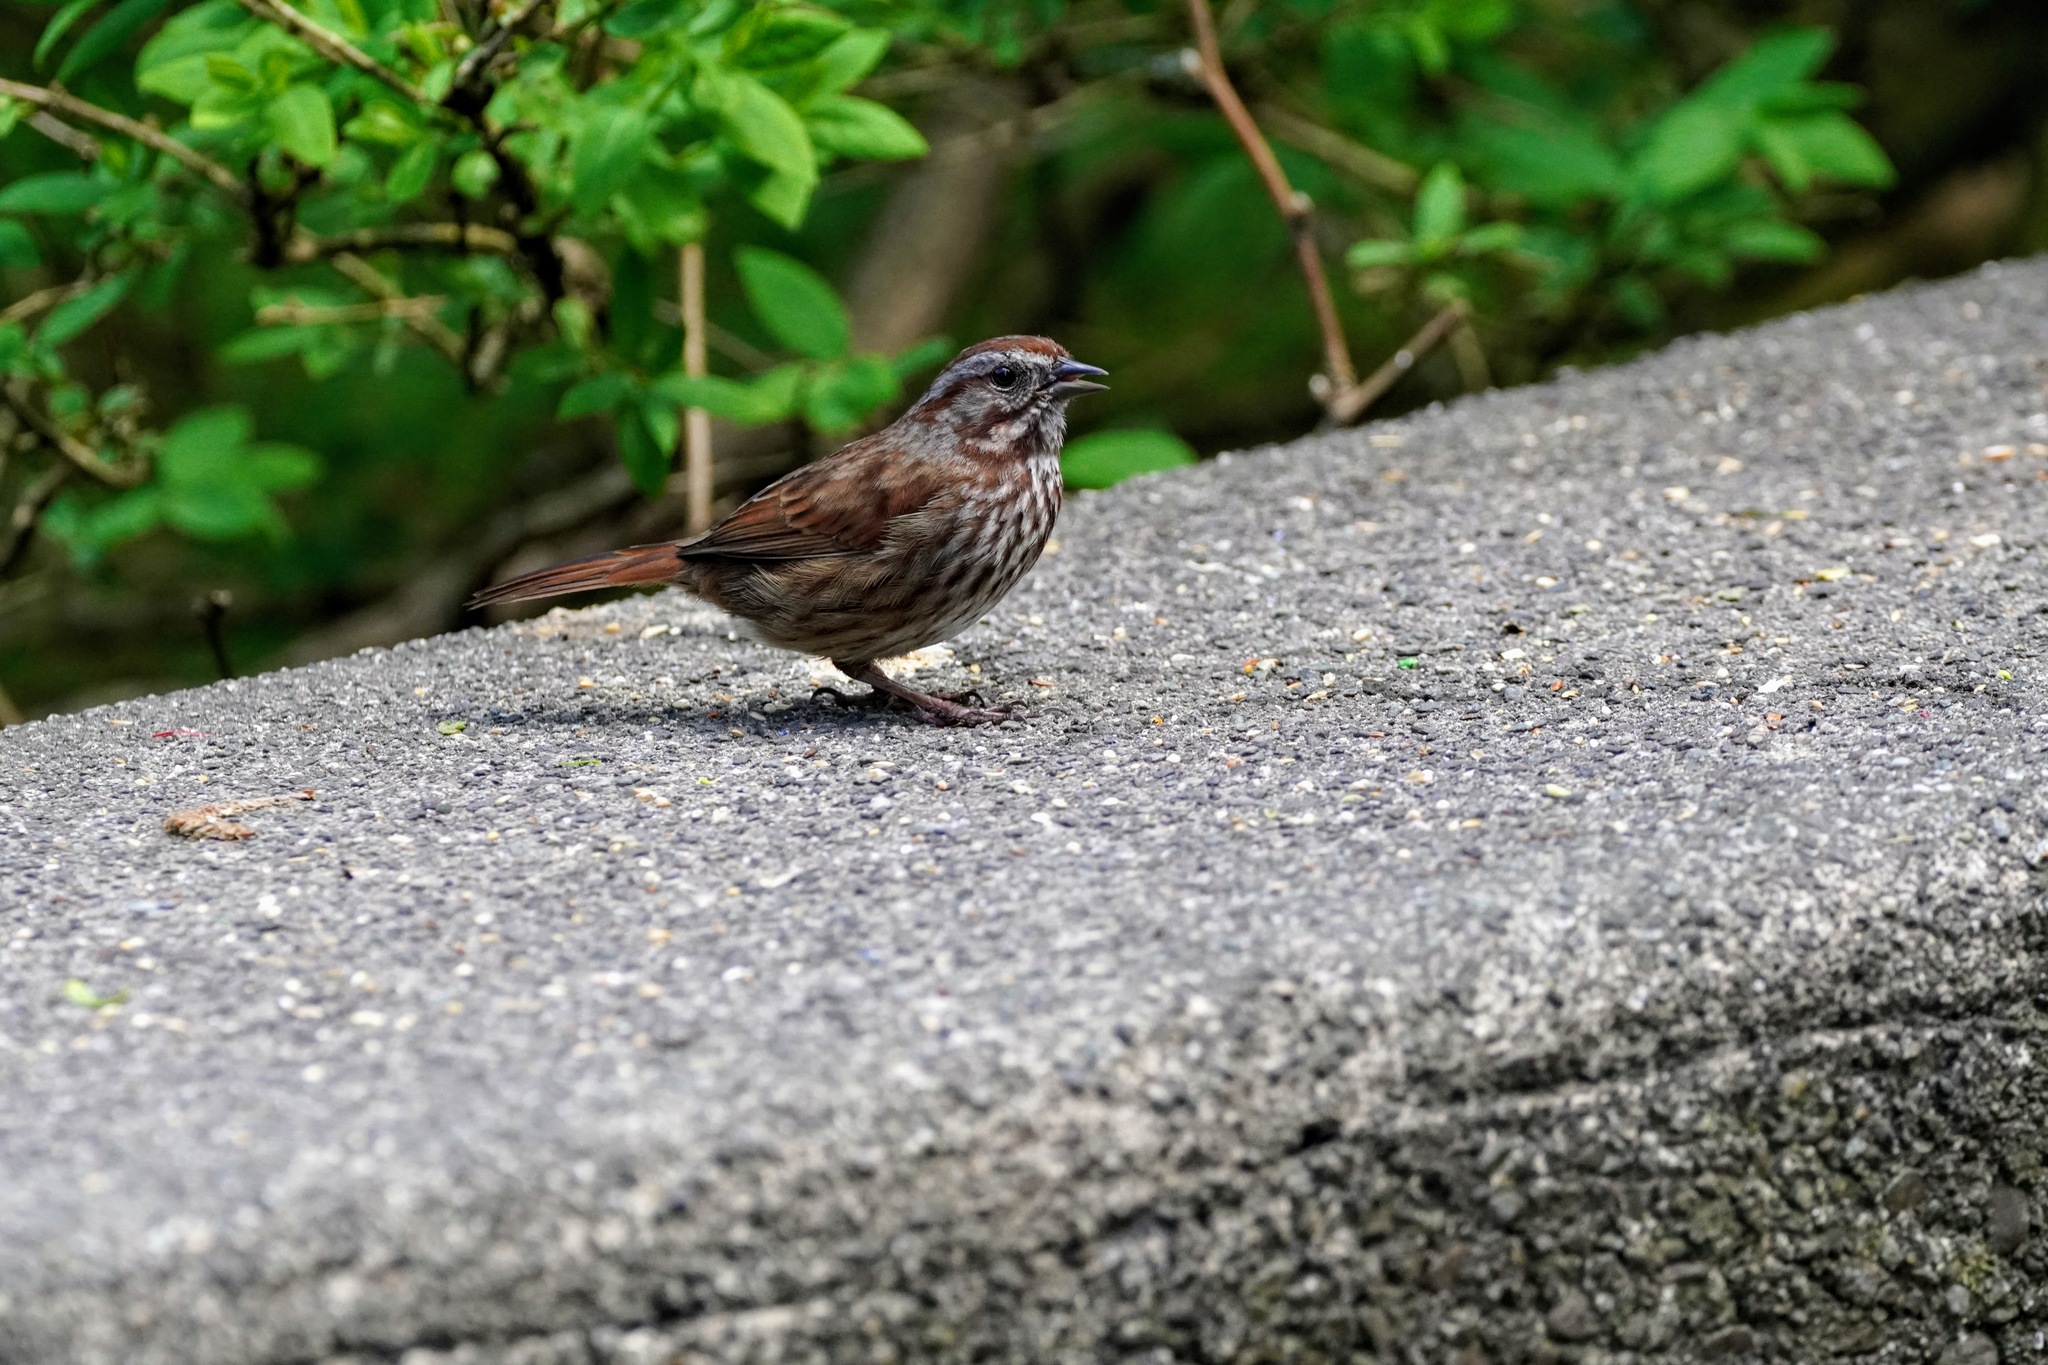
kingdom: Animalia
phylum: Chordata
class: Aves
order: Passeriformes
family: Passerellidae
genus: Melospiza
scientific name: Melospiza melodia
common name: Song sparrow
